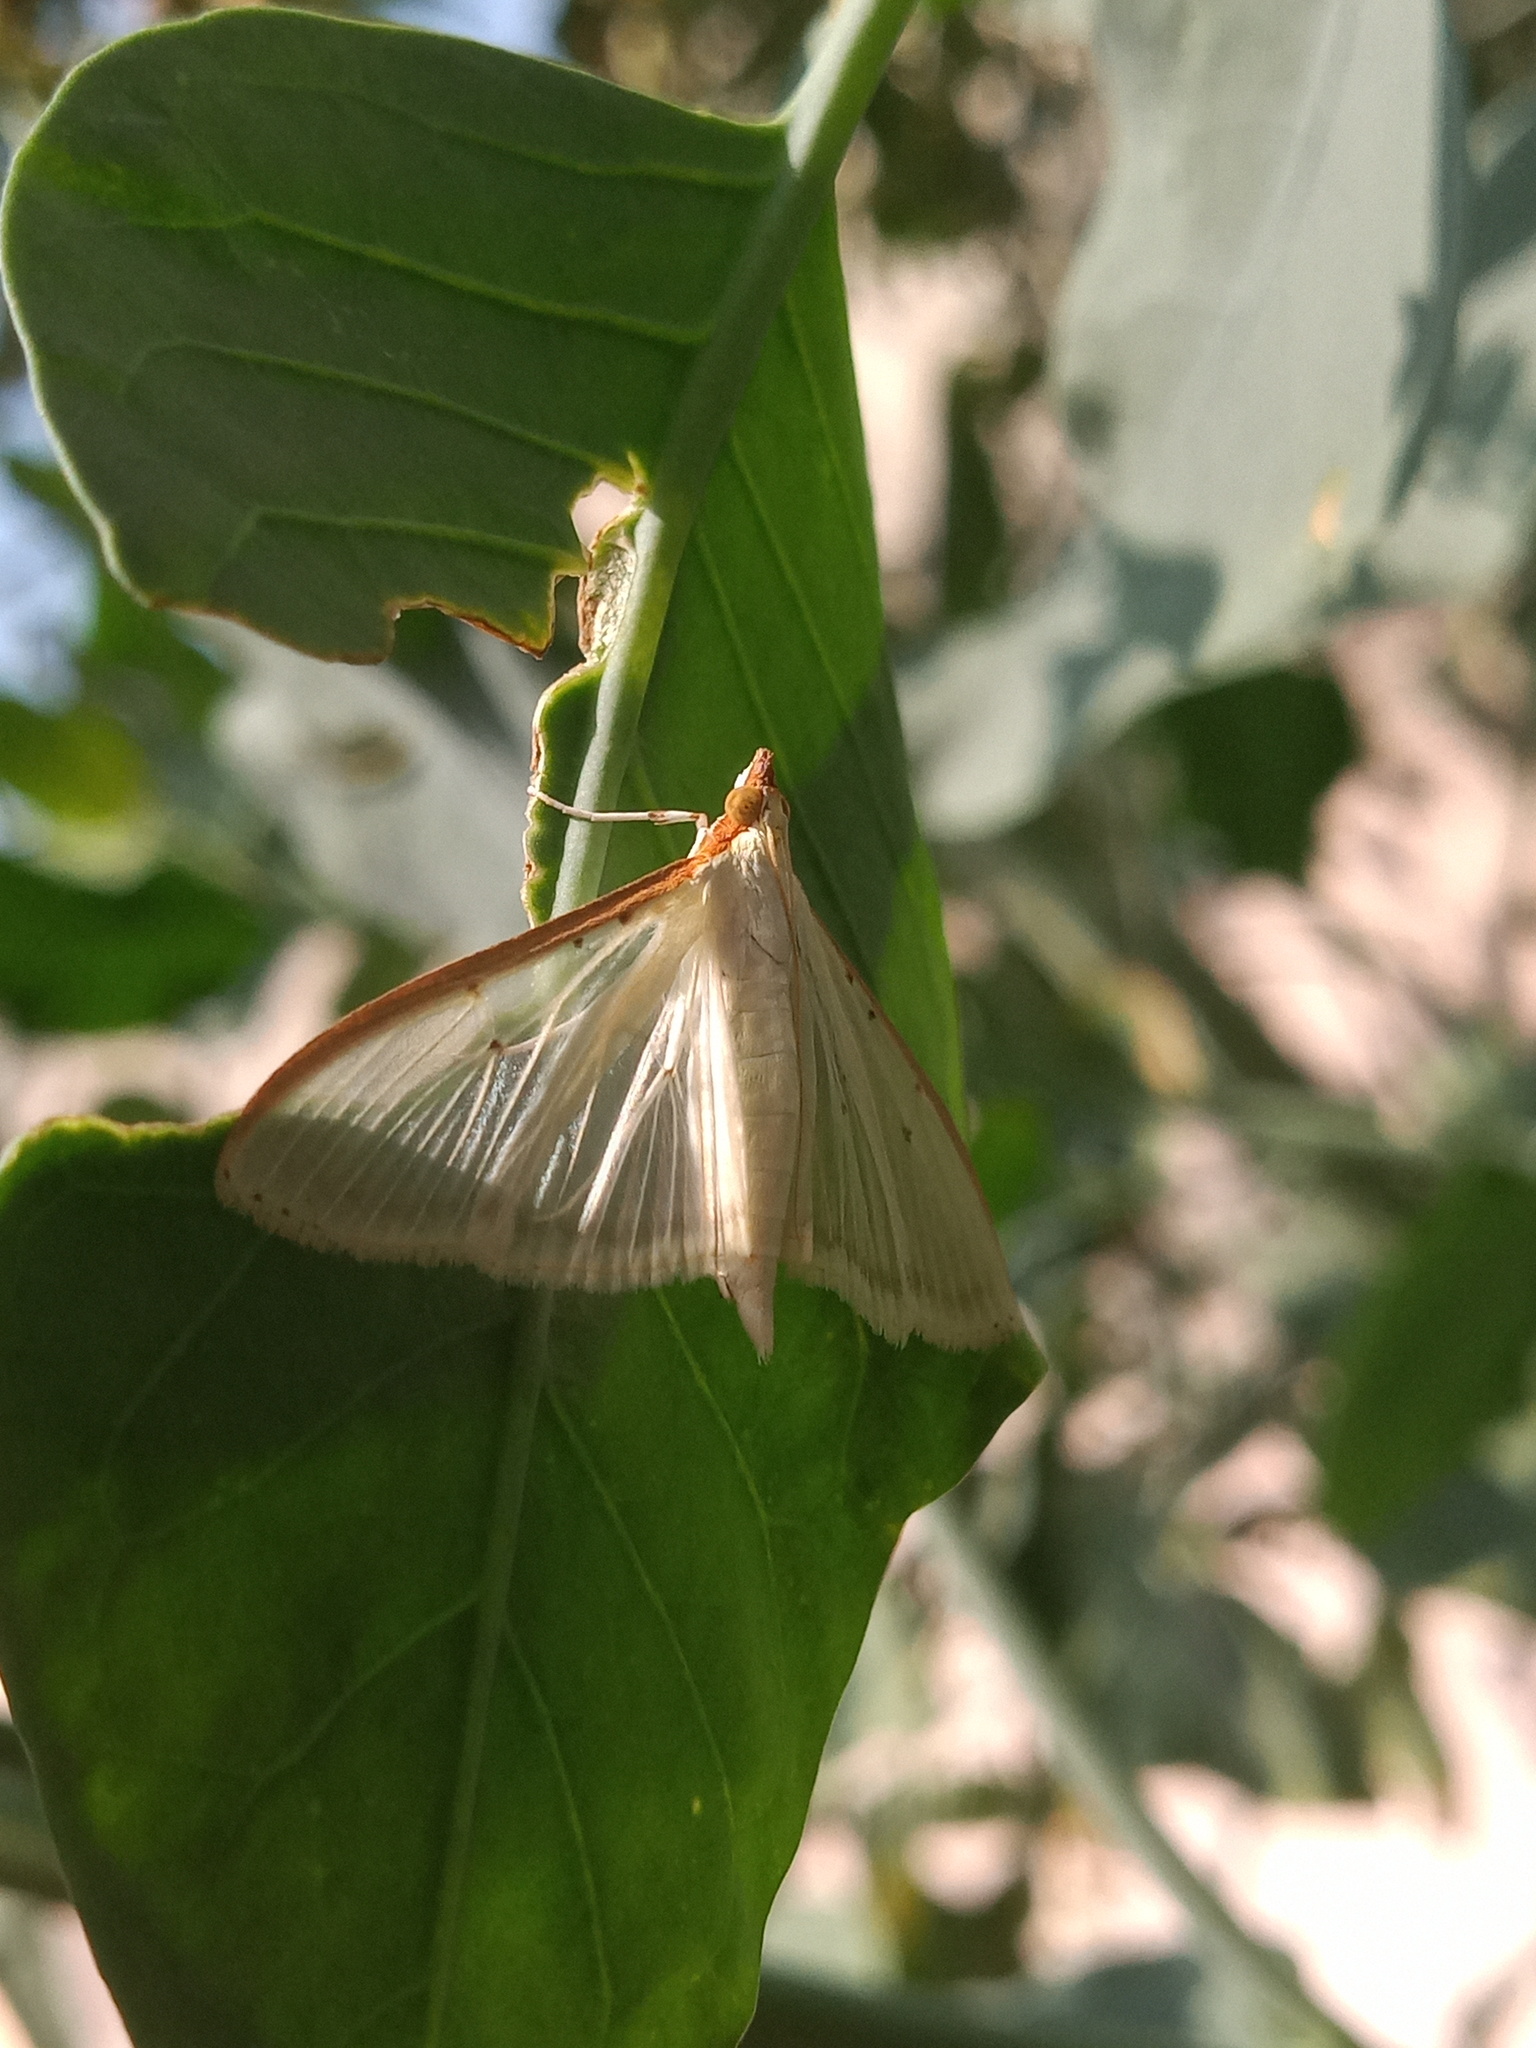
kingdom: Animalia
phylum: Arthropoda
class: Insecta
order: Lepidoptera
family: Crambidae
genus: Palpita
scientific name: Palpita quadristigmalis
